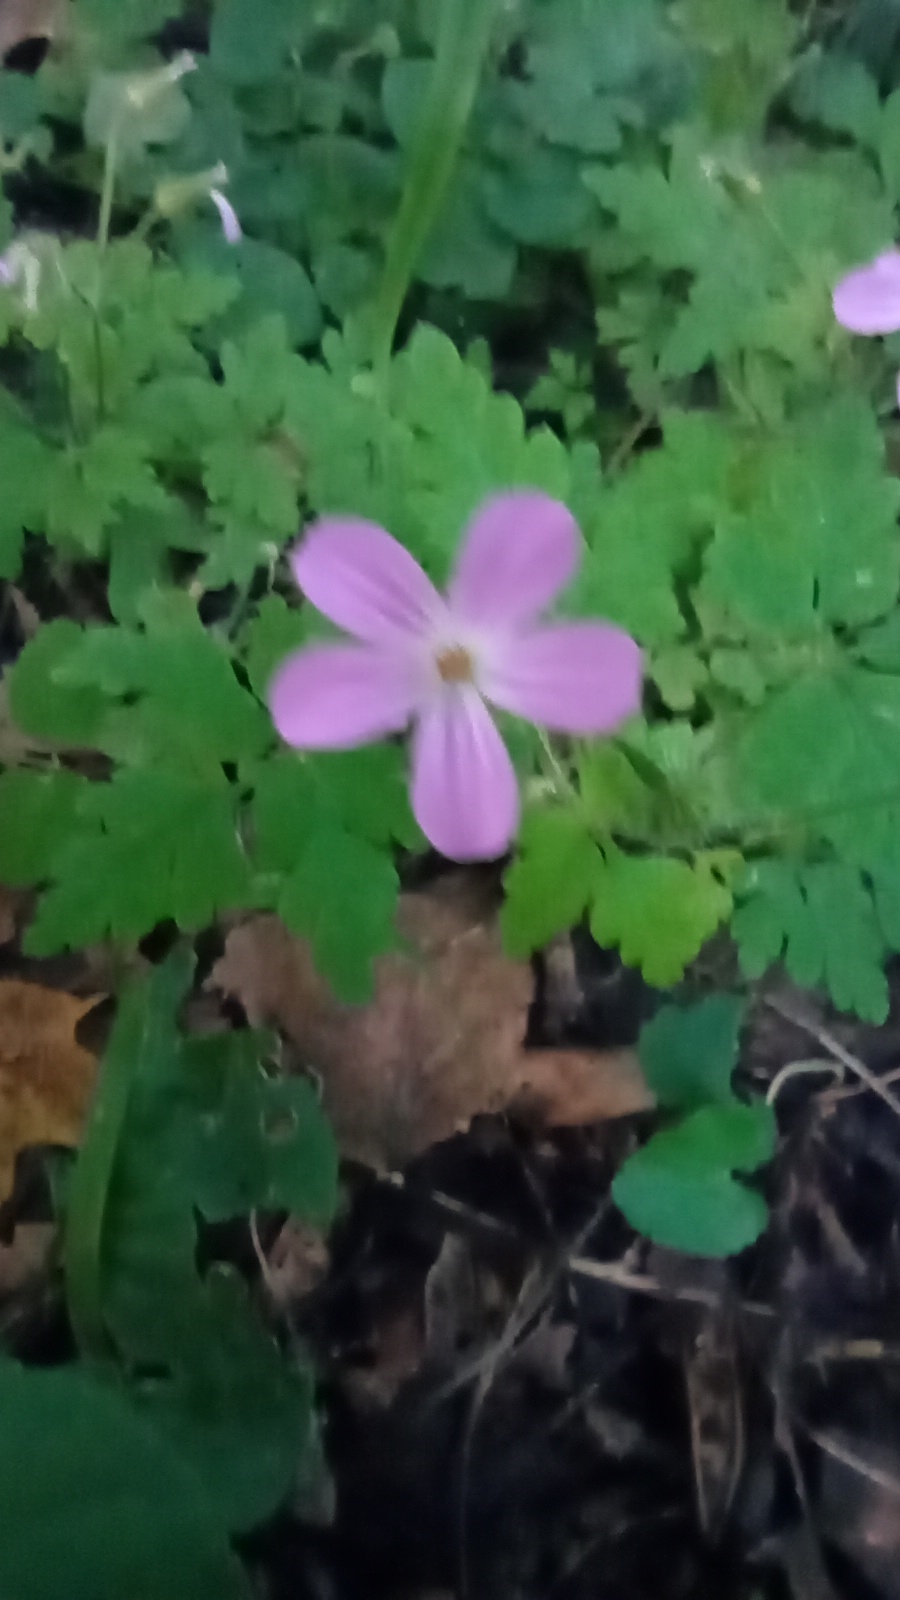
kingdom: Plantae
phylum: Tracheophyta
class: Magnoliopsida
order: Geraniales
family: Geraniaceae
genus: Geranium
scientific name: Geranium robertianum
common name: Herb-robert
